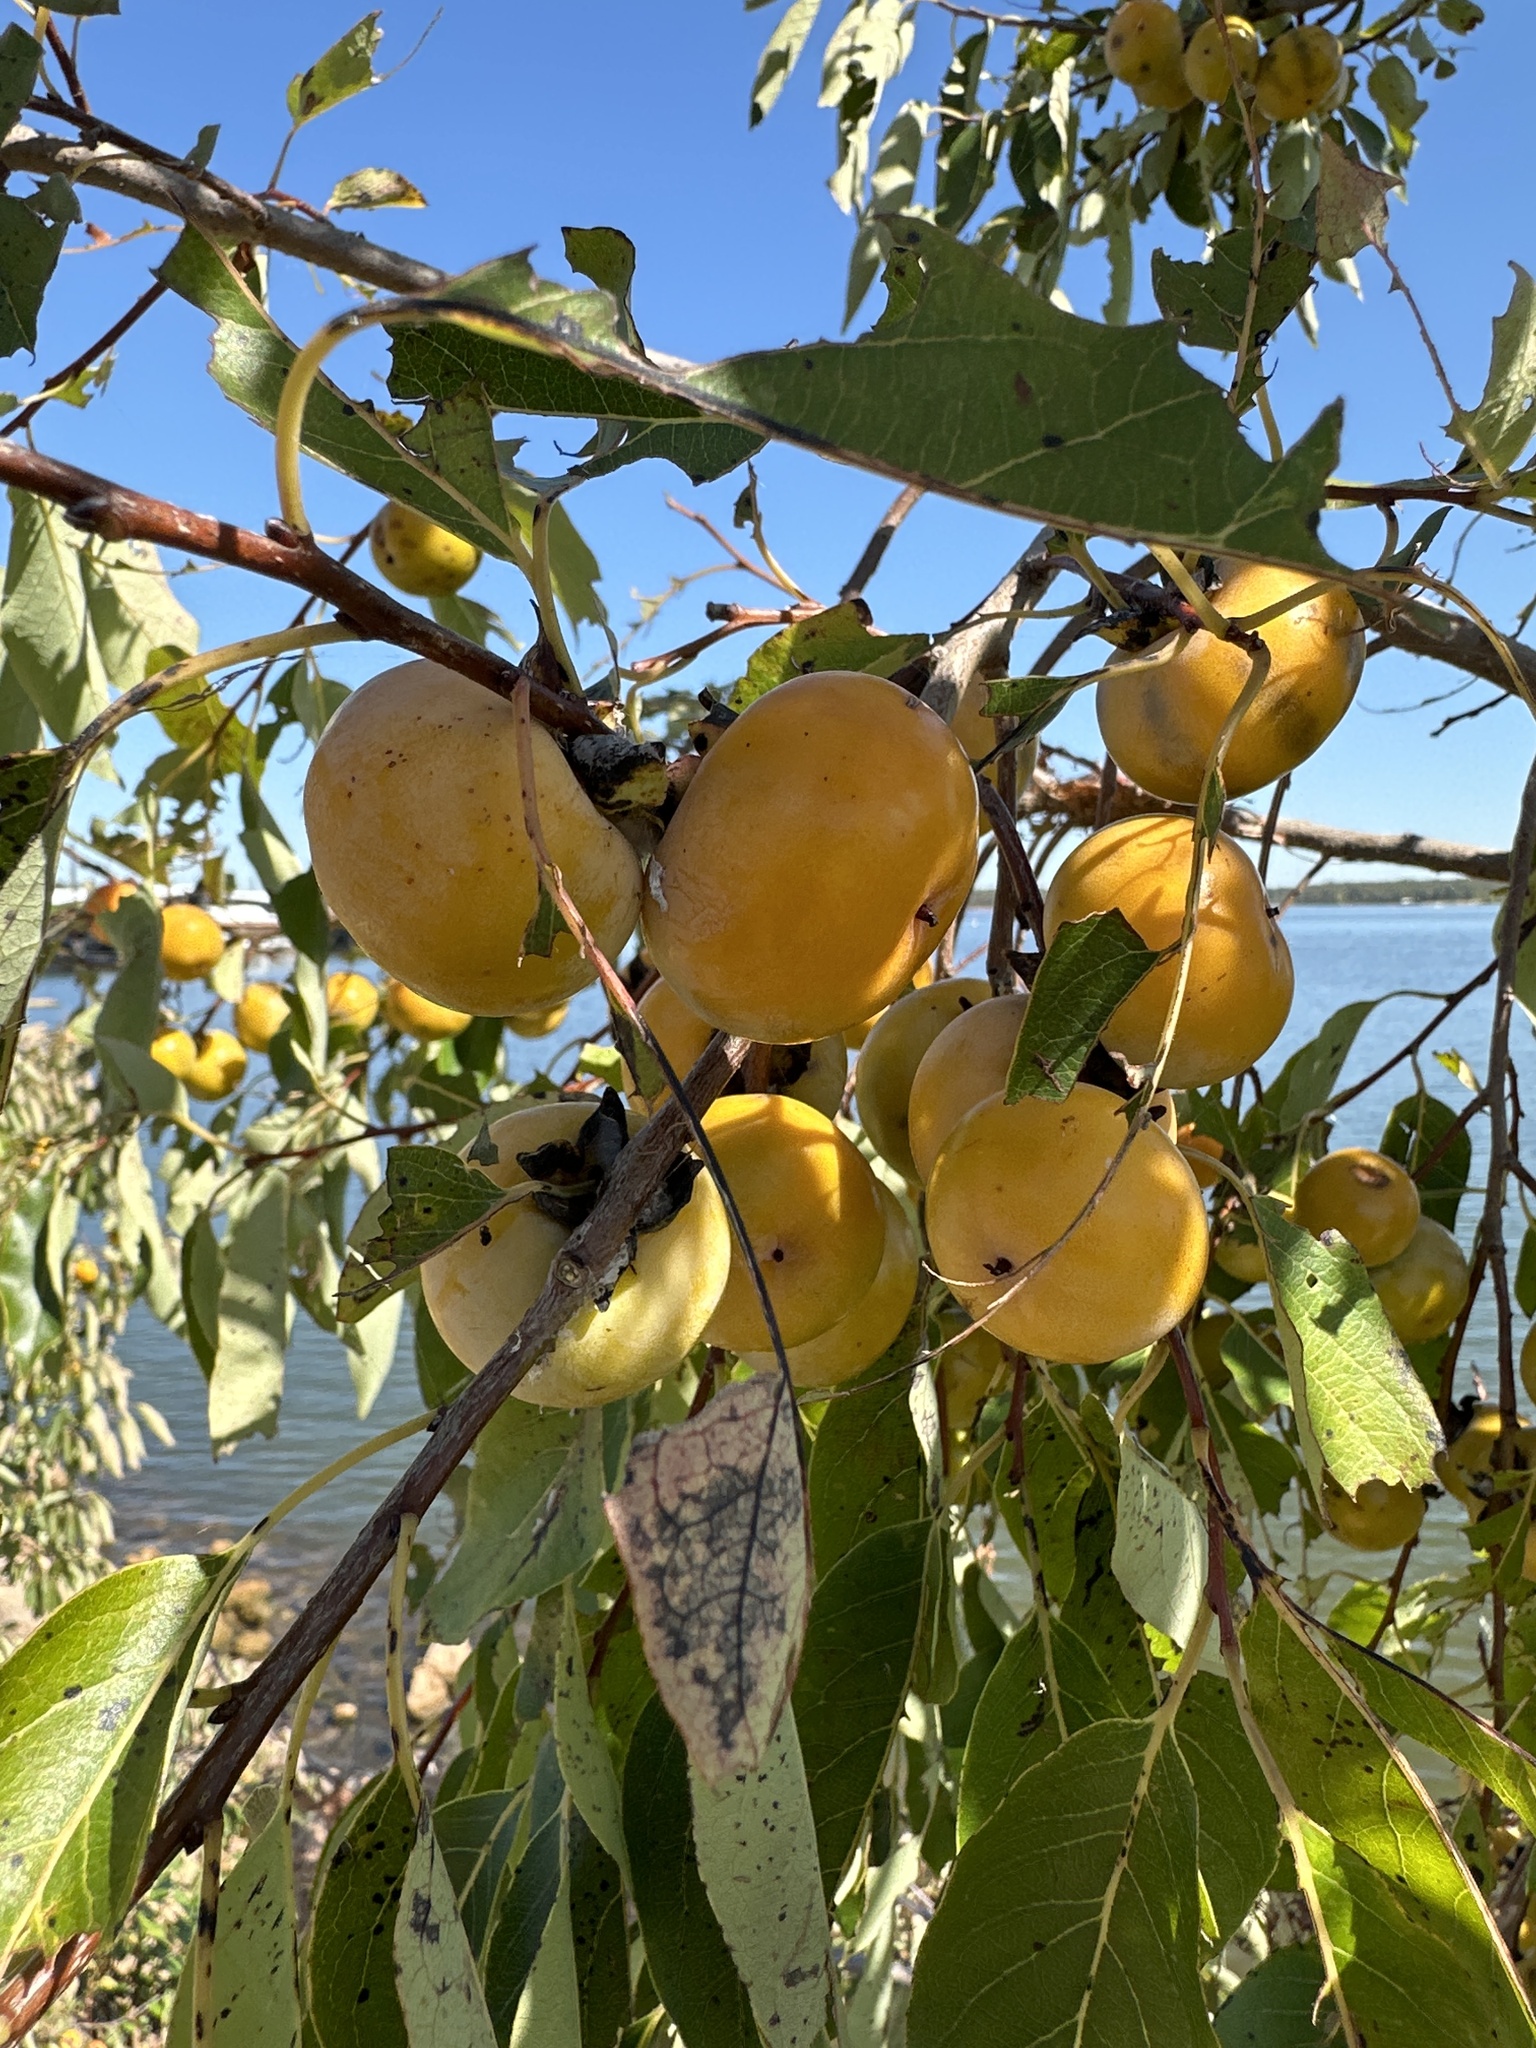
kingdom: Plantae
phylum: Tracheophyta
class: Magnoliopsida
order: Ericales
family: Ebenaceae
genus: Diospyros
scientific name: Diospyros virginiana
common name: Persimmon
